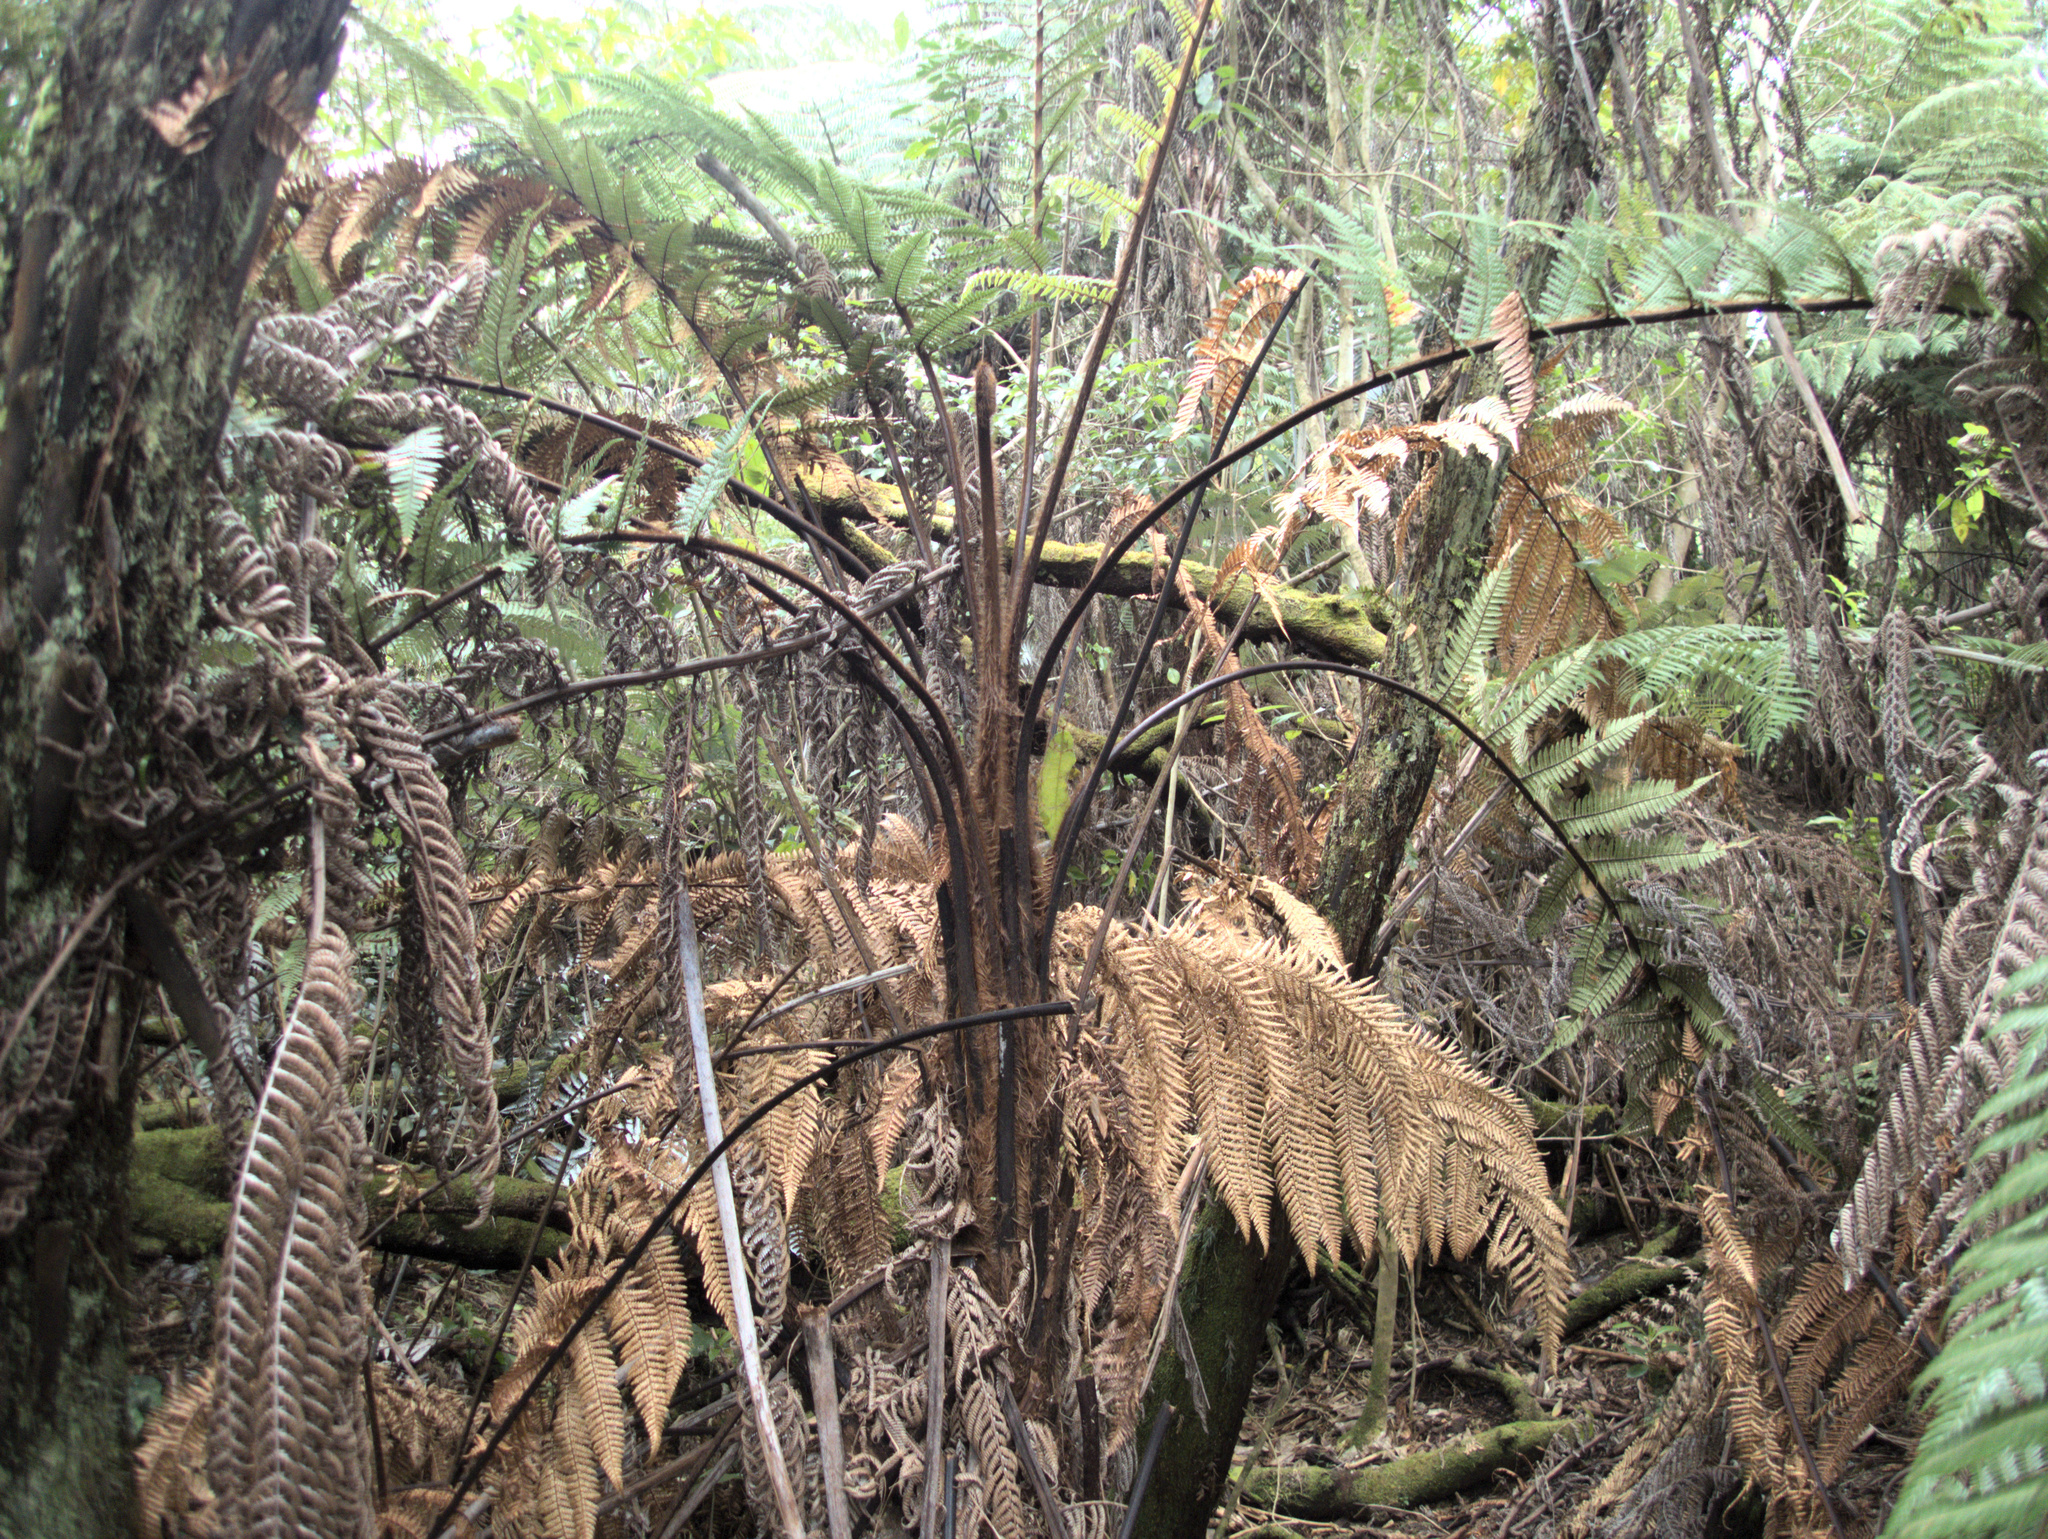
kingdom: Plantae
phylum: Tracheophyta
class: Polypodiopsida
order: Cyatheales
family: Dicksoniaceae
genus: Dicksonia
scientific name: Dicksonia squarrosa
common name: Hard treefern
